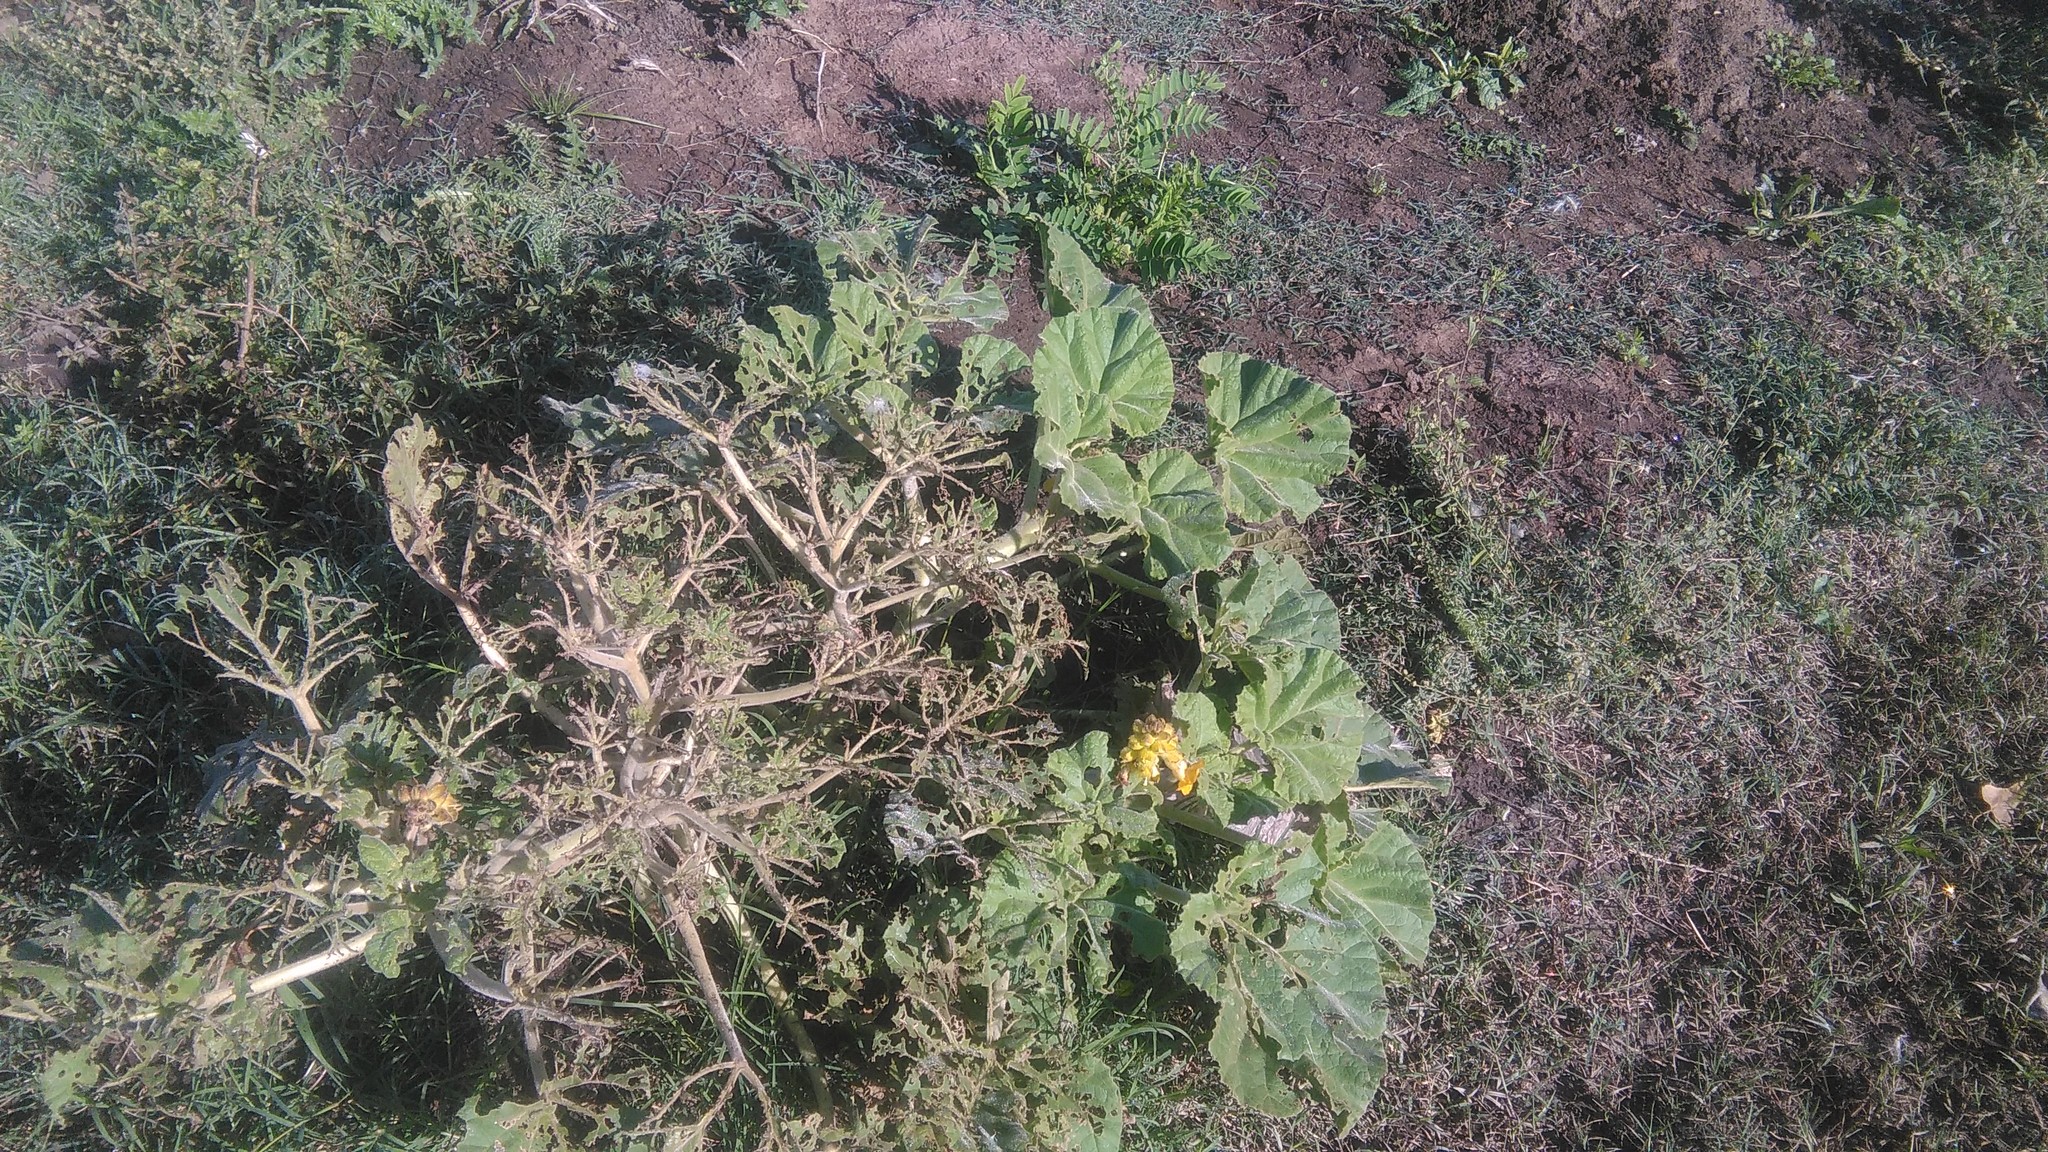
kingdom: Plantae
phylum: Tracheophyta
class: Magnoliopsida
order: Lamiales
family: Martyniaceae
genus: Ibicella
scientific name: Ibicella lutea
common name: Yellow unicorn-plant
